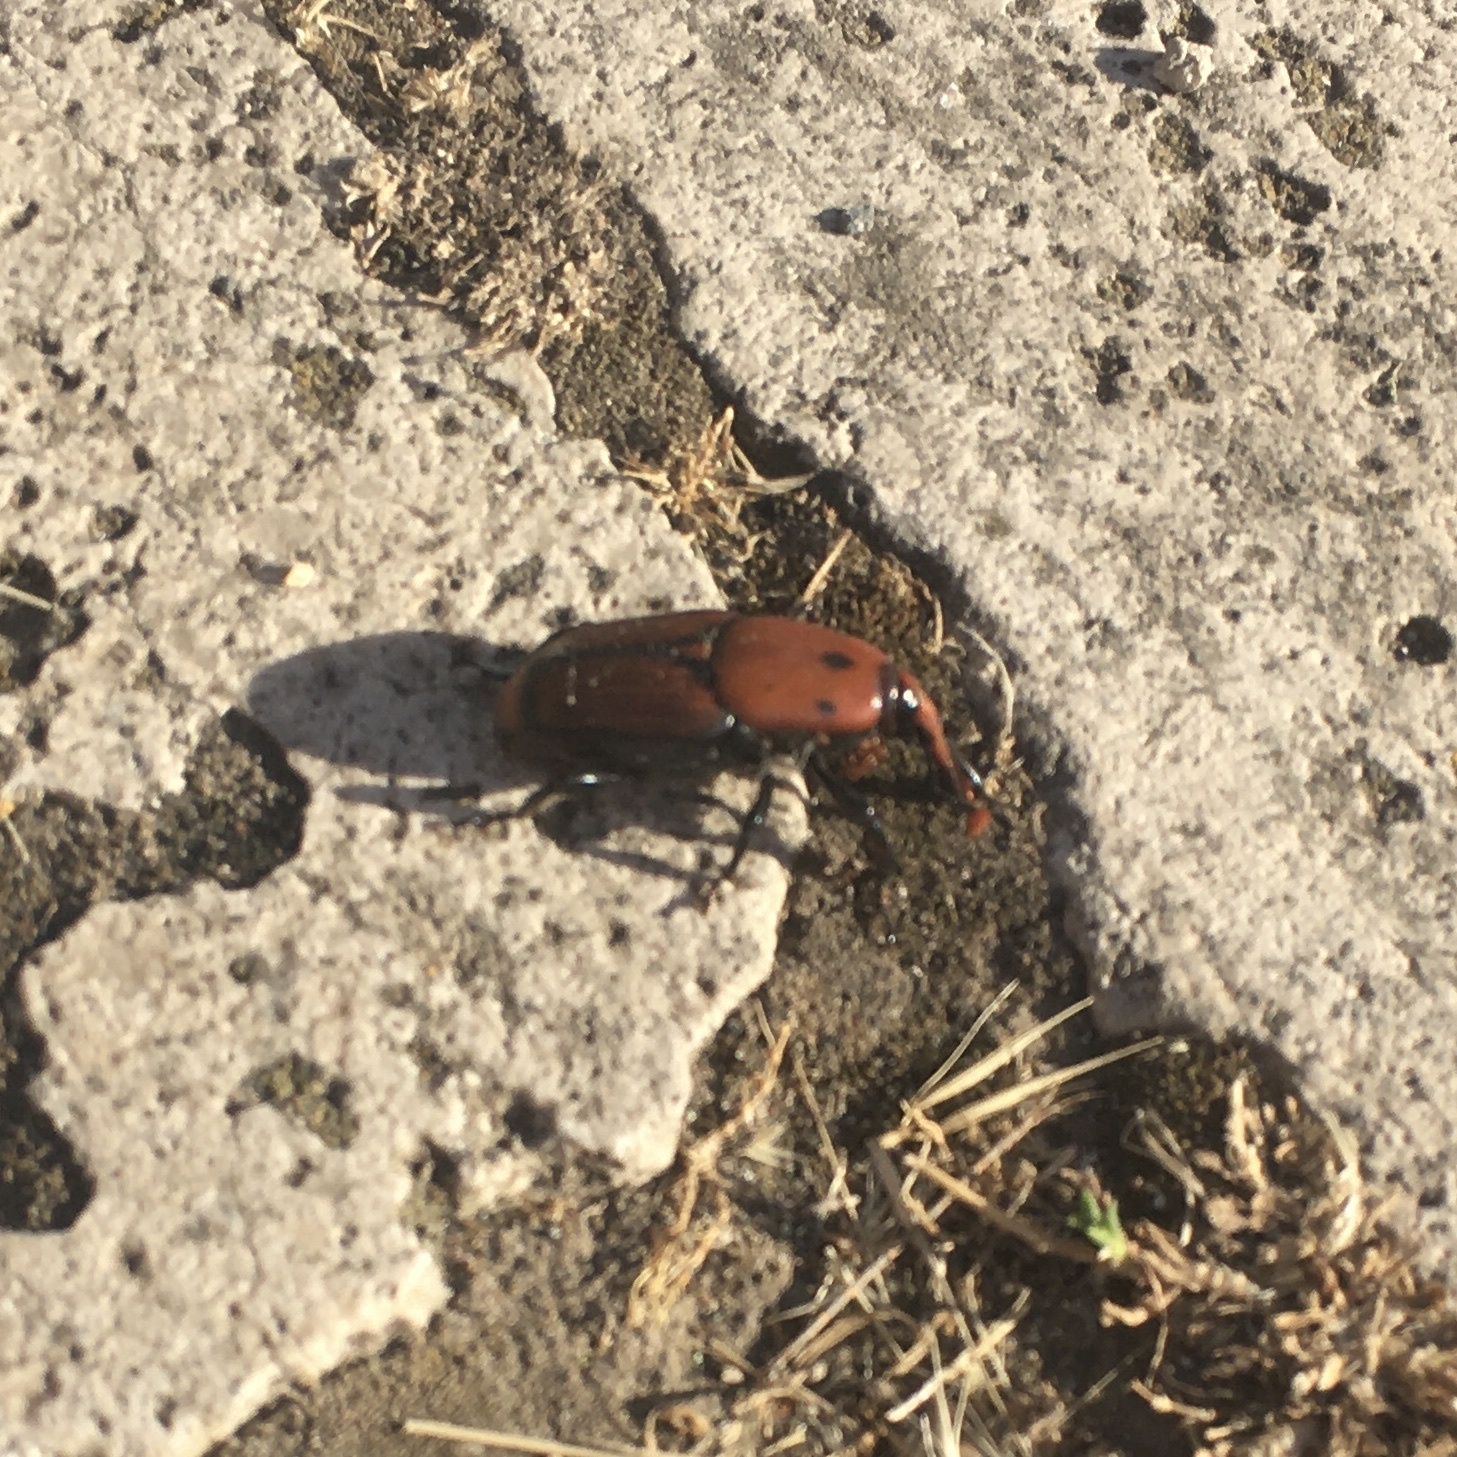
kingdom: Animalia
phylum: Arthropoda
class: Insecta
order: Coleoptera
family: Dryophthoridae
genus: Rhynchophorus
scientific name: Rhynchophorus ferrugineus
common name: Red palm weevil
